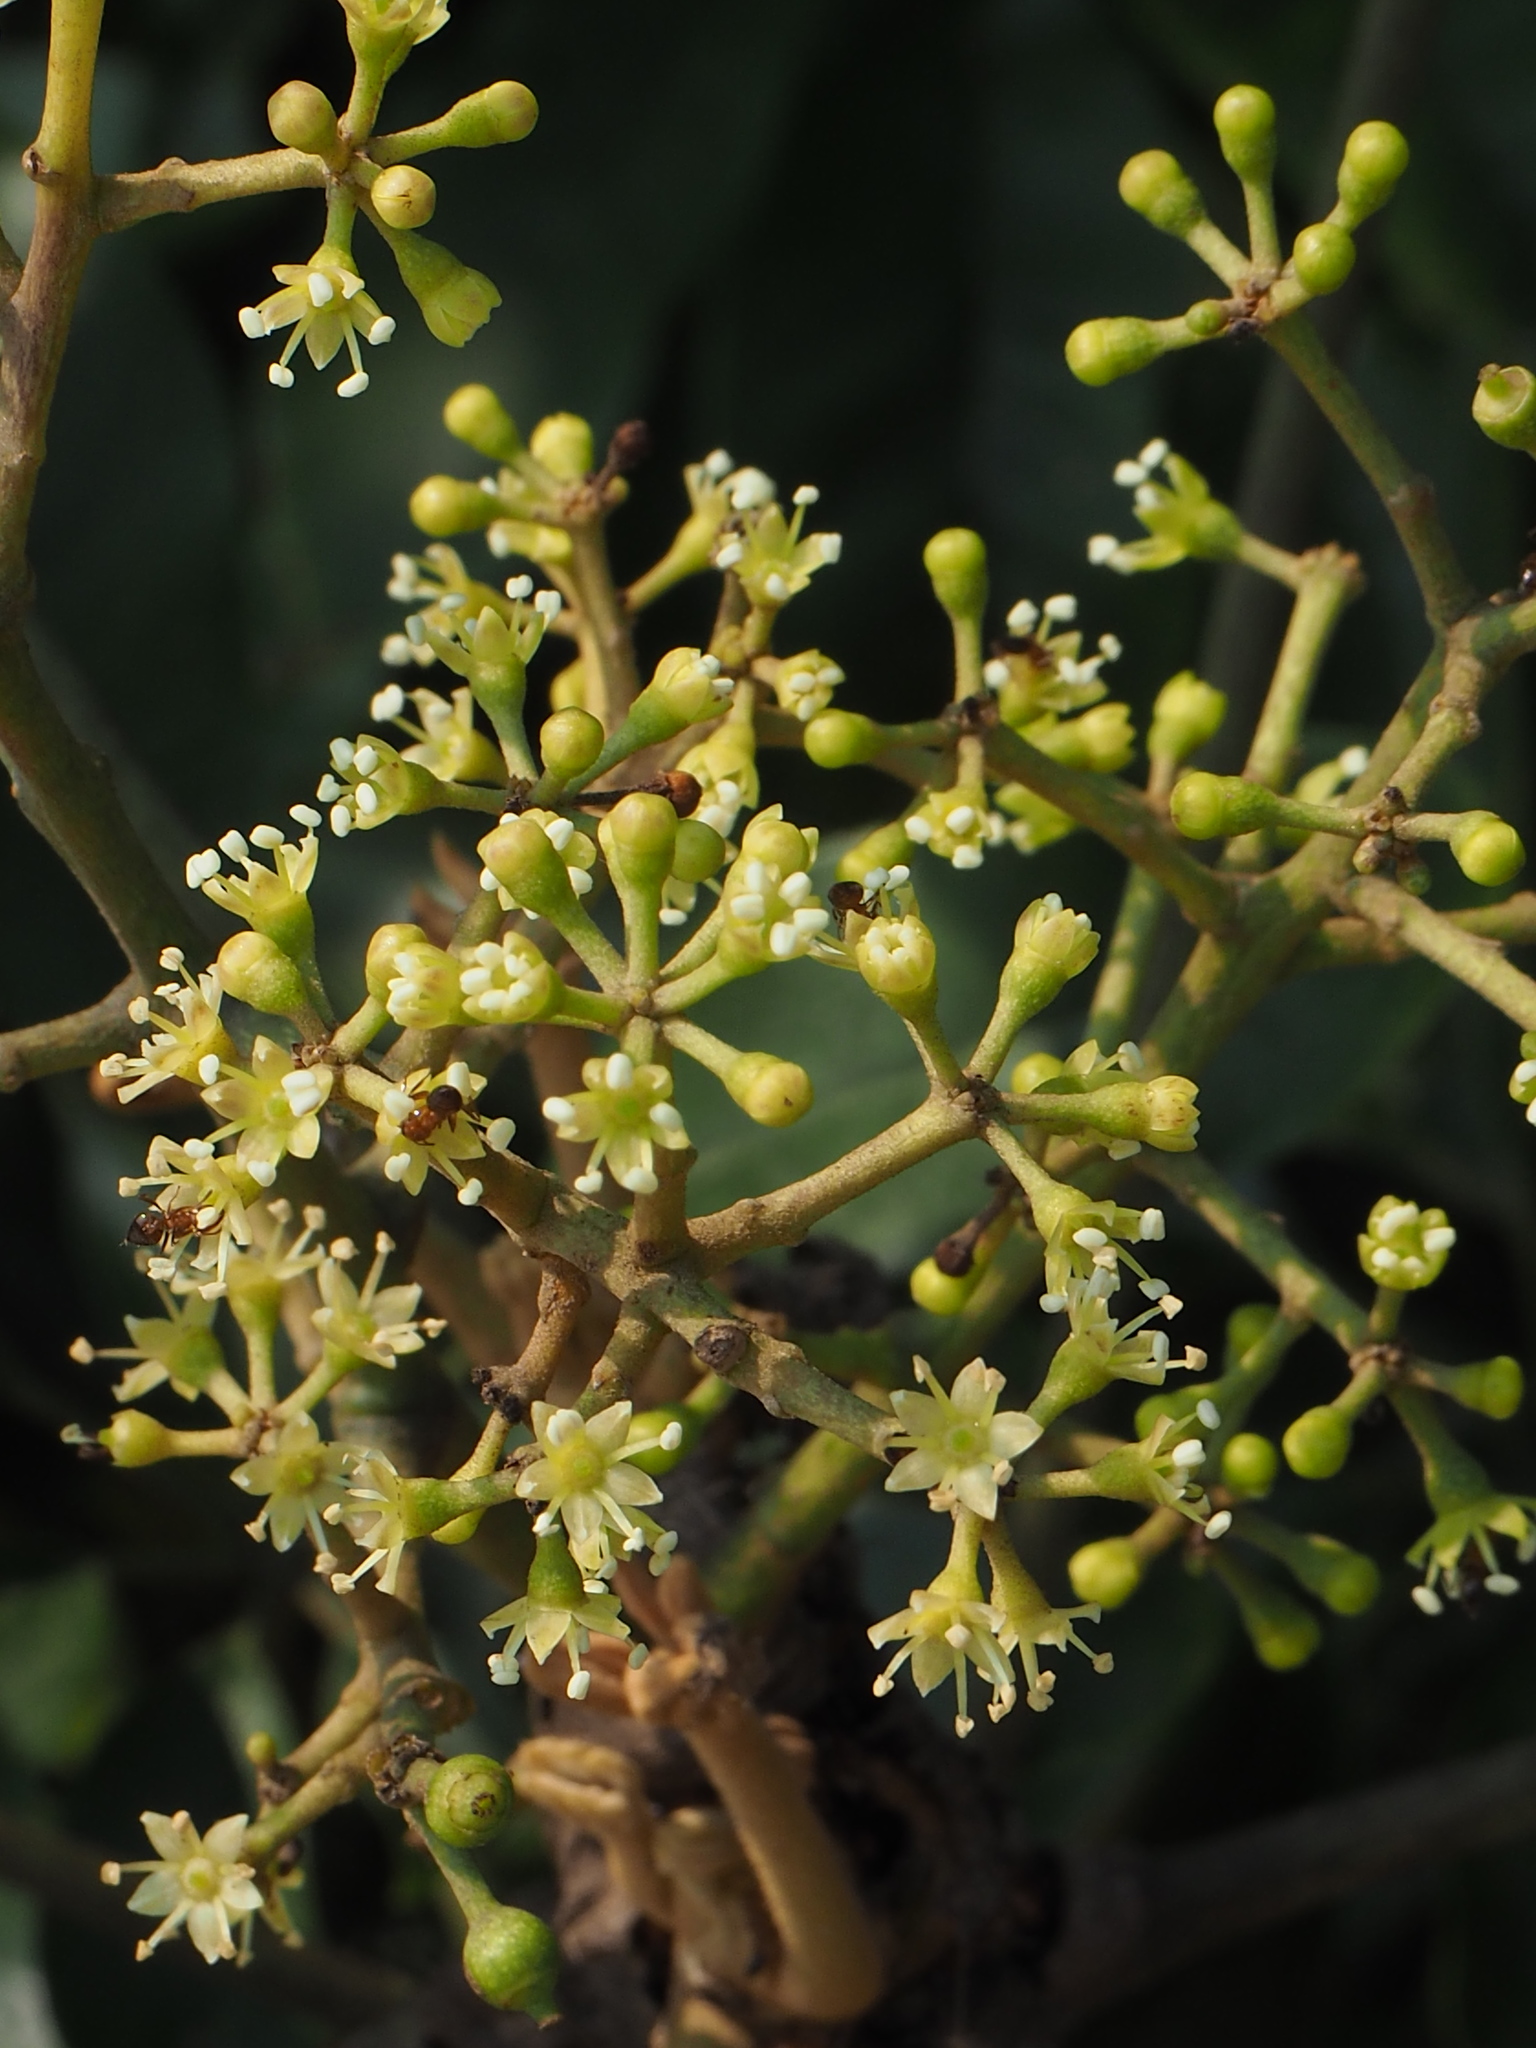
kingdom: Plantae
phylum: Tracheophyta
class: Magnoliopsida
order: Apiales
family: Araliaceae
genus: Heptapleurum
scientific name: Heptapleurum heptaphyllum
